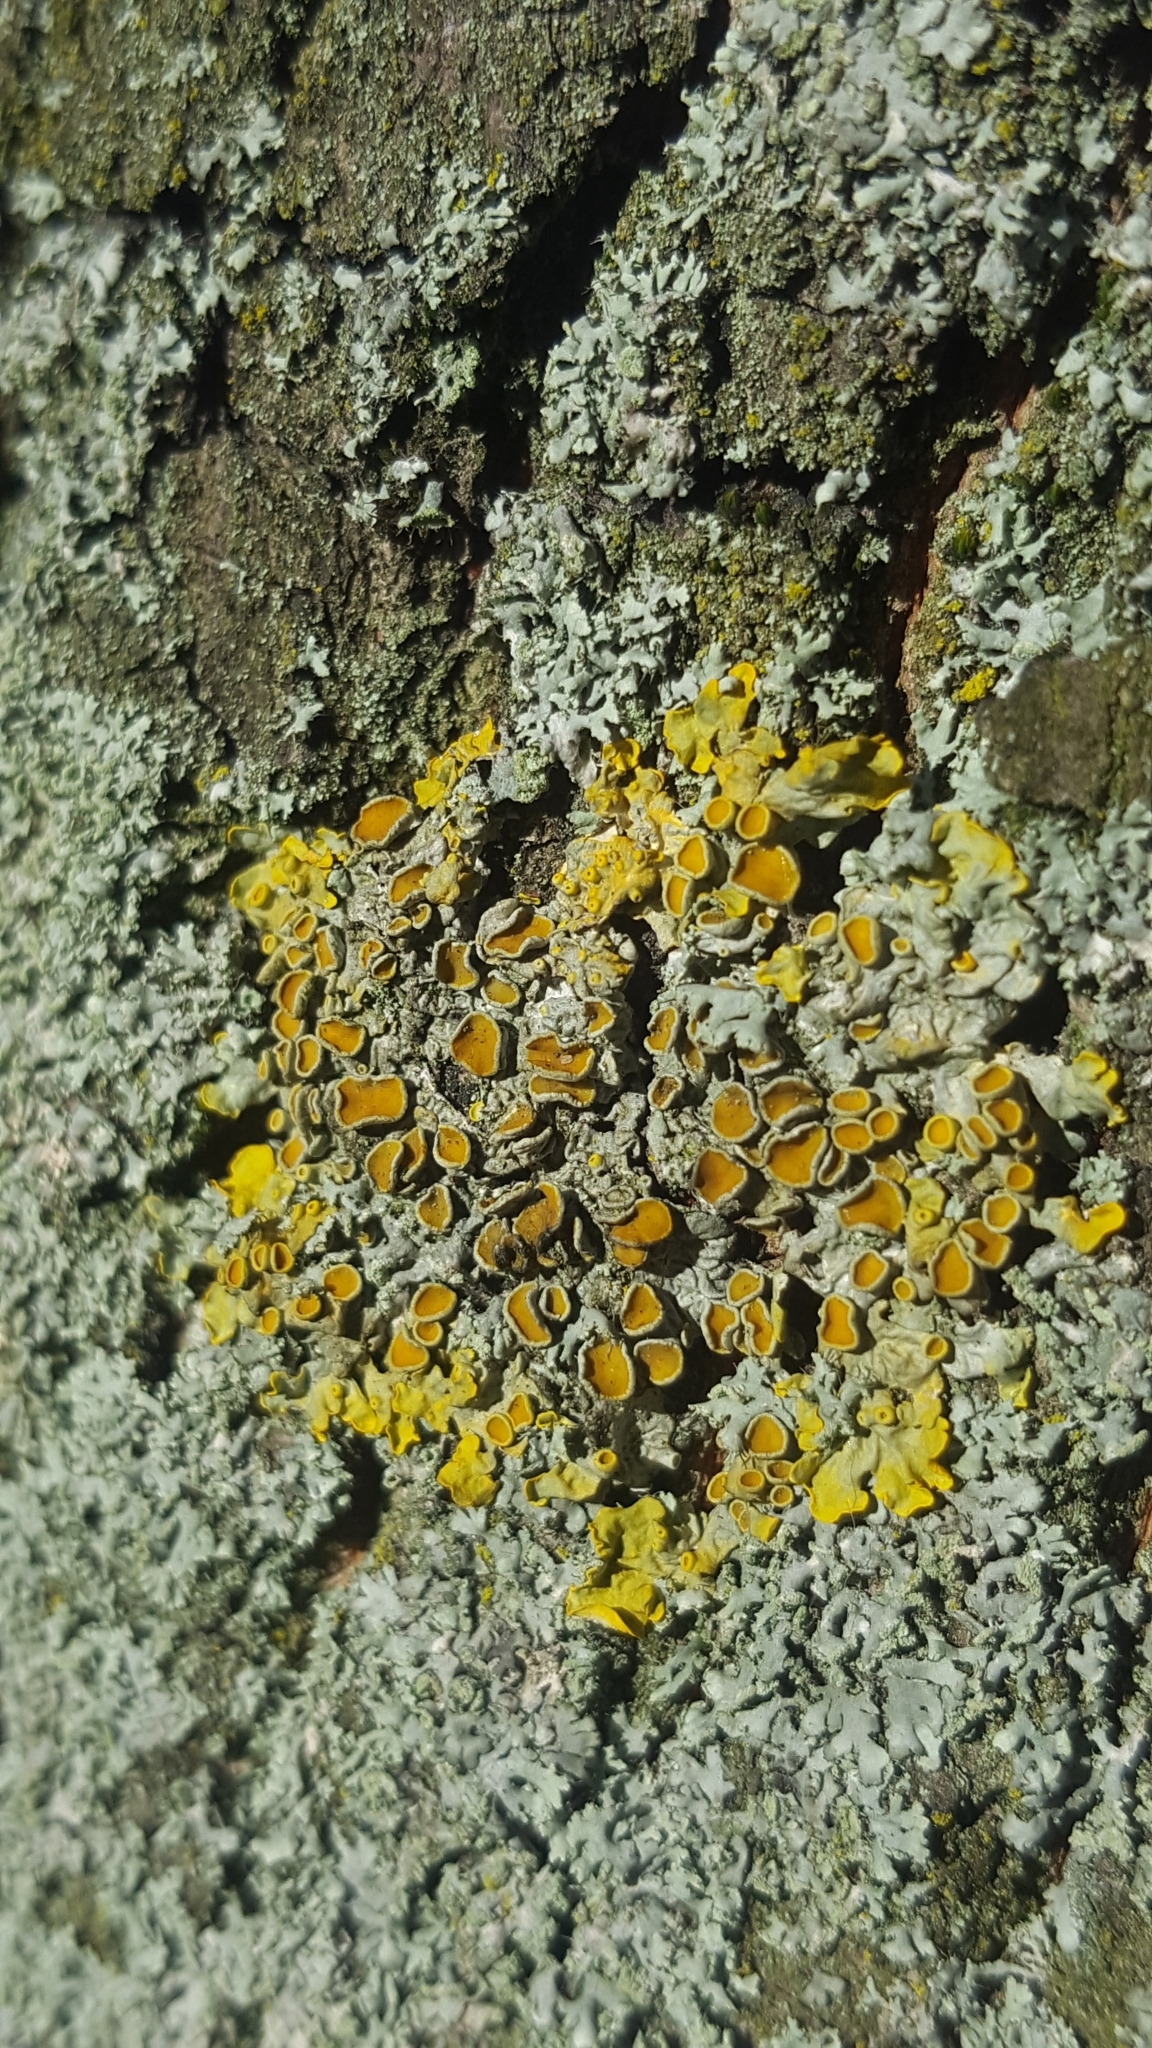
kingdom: Fungi
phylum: Ascomycota
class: Lecanoromycetes
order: Teloschistales
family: Teloschistaceae
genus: Xanthoria
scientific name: Xanthoria parietina
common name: Common orange lichen
